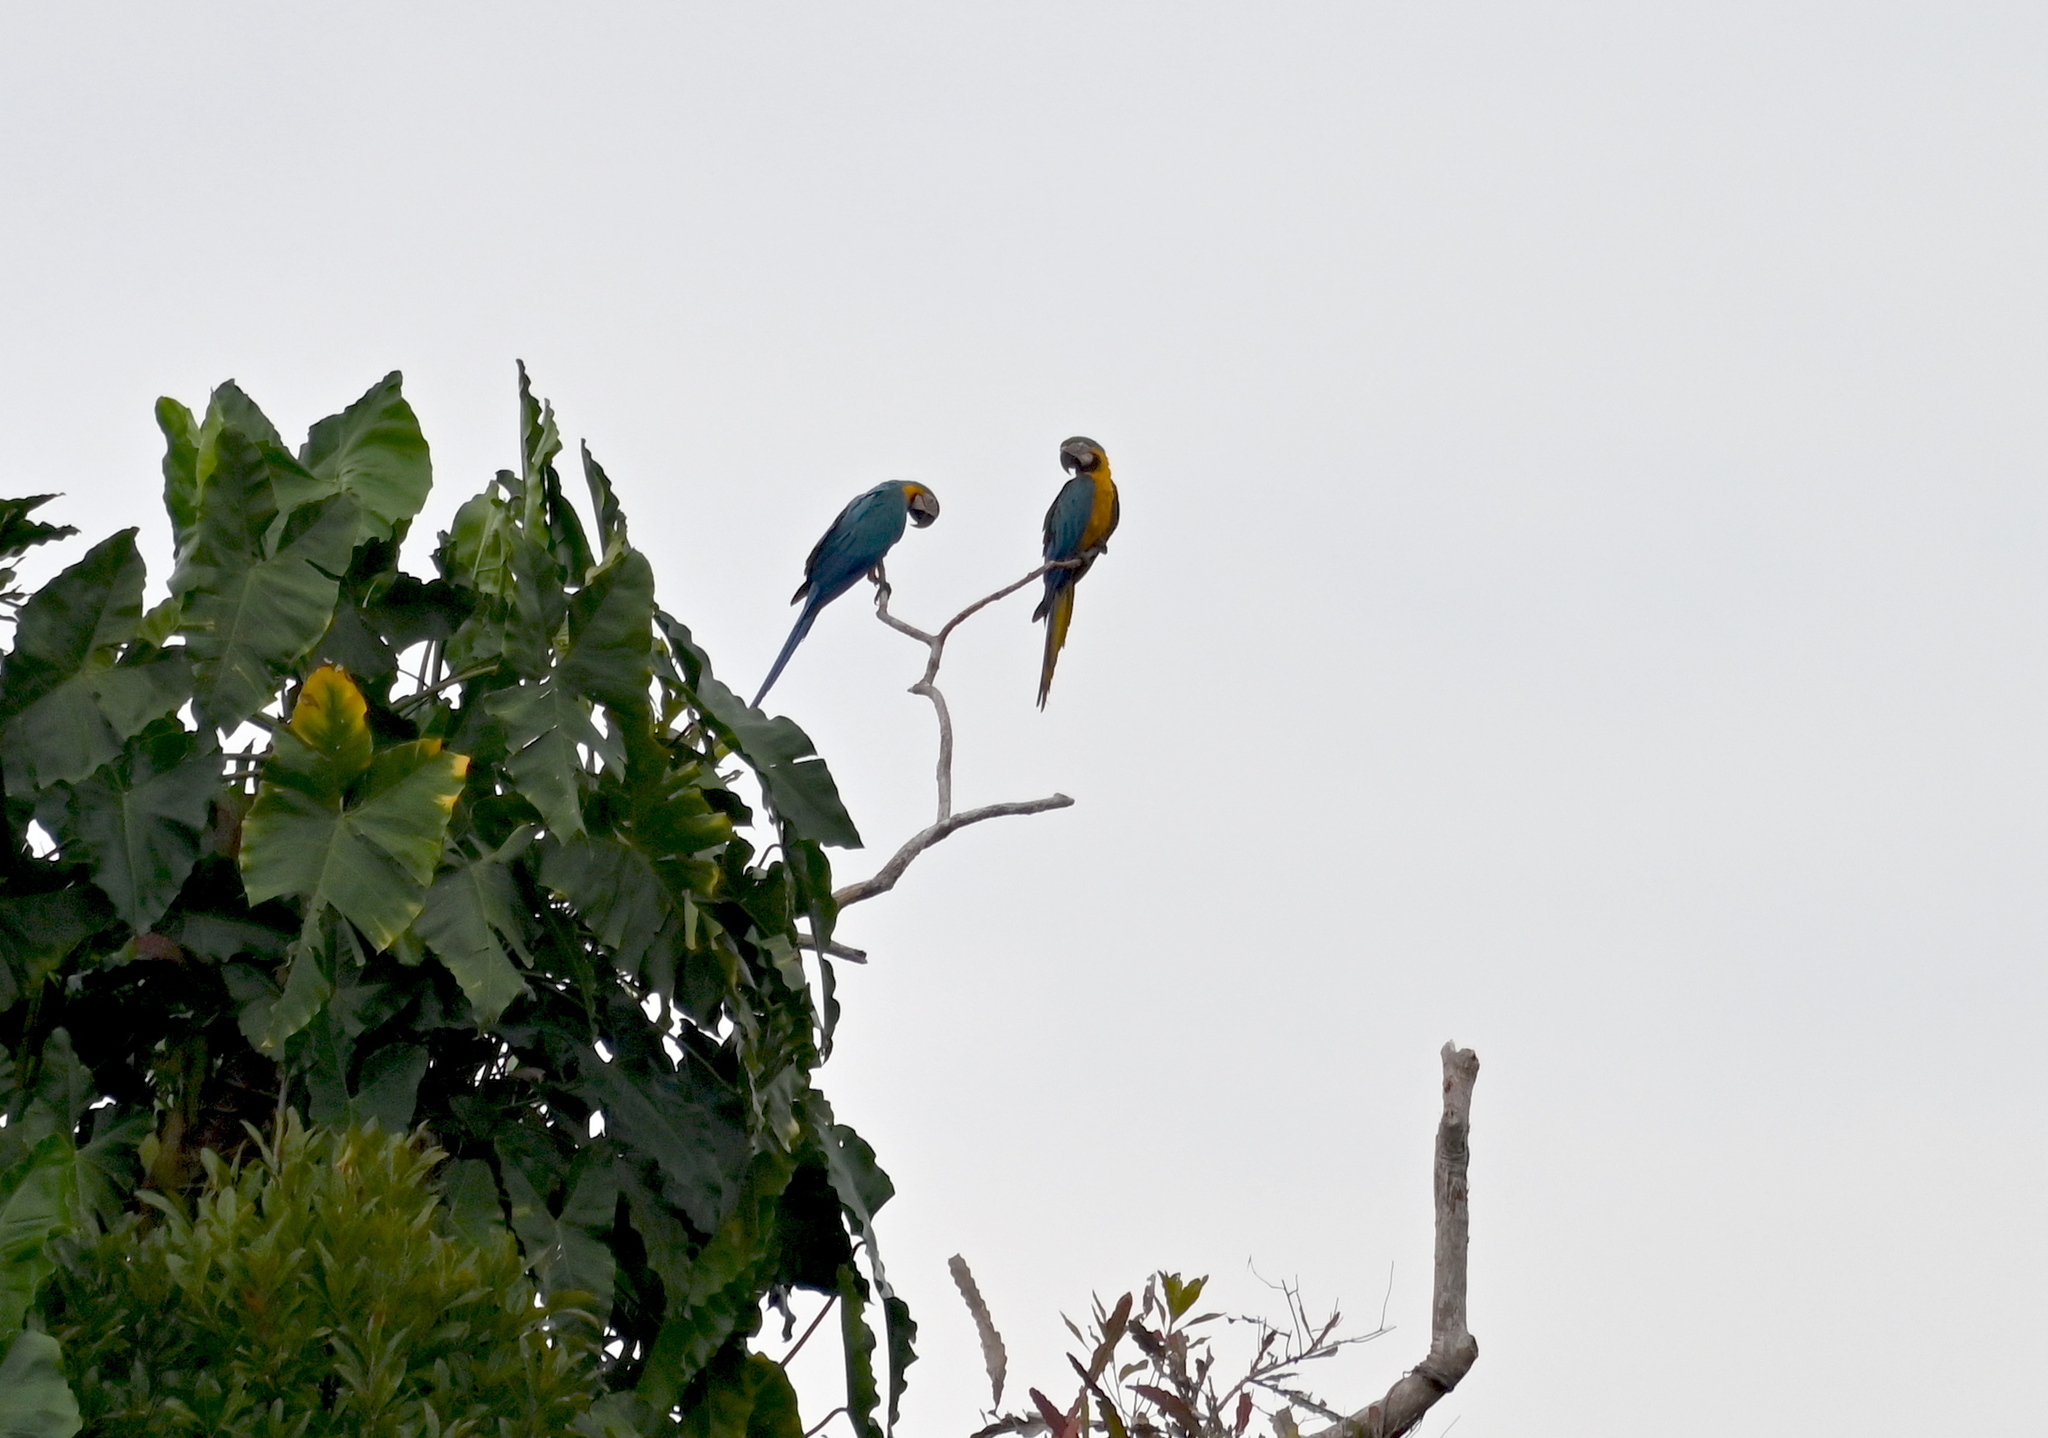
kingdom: Animalia
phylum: Chordata
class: Aves
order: Psittaciformes
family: Psittacidae
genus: Ara
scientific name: Ara ararauna
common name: Blue-and-yellow macaw
